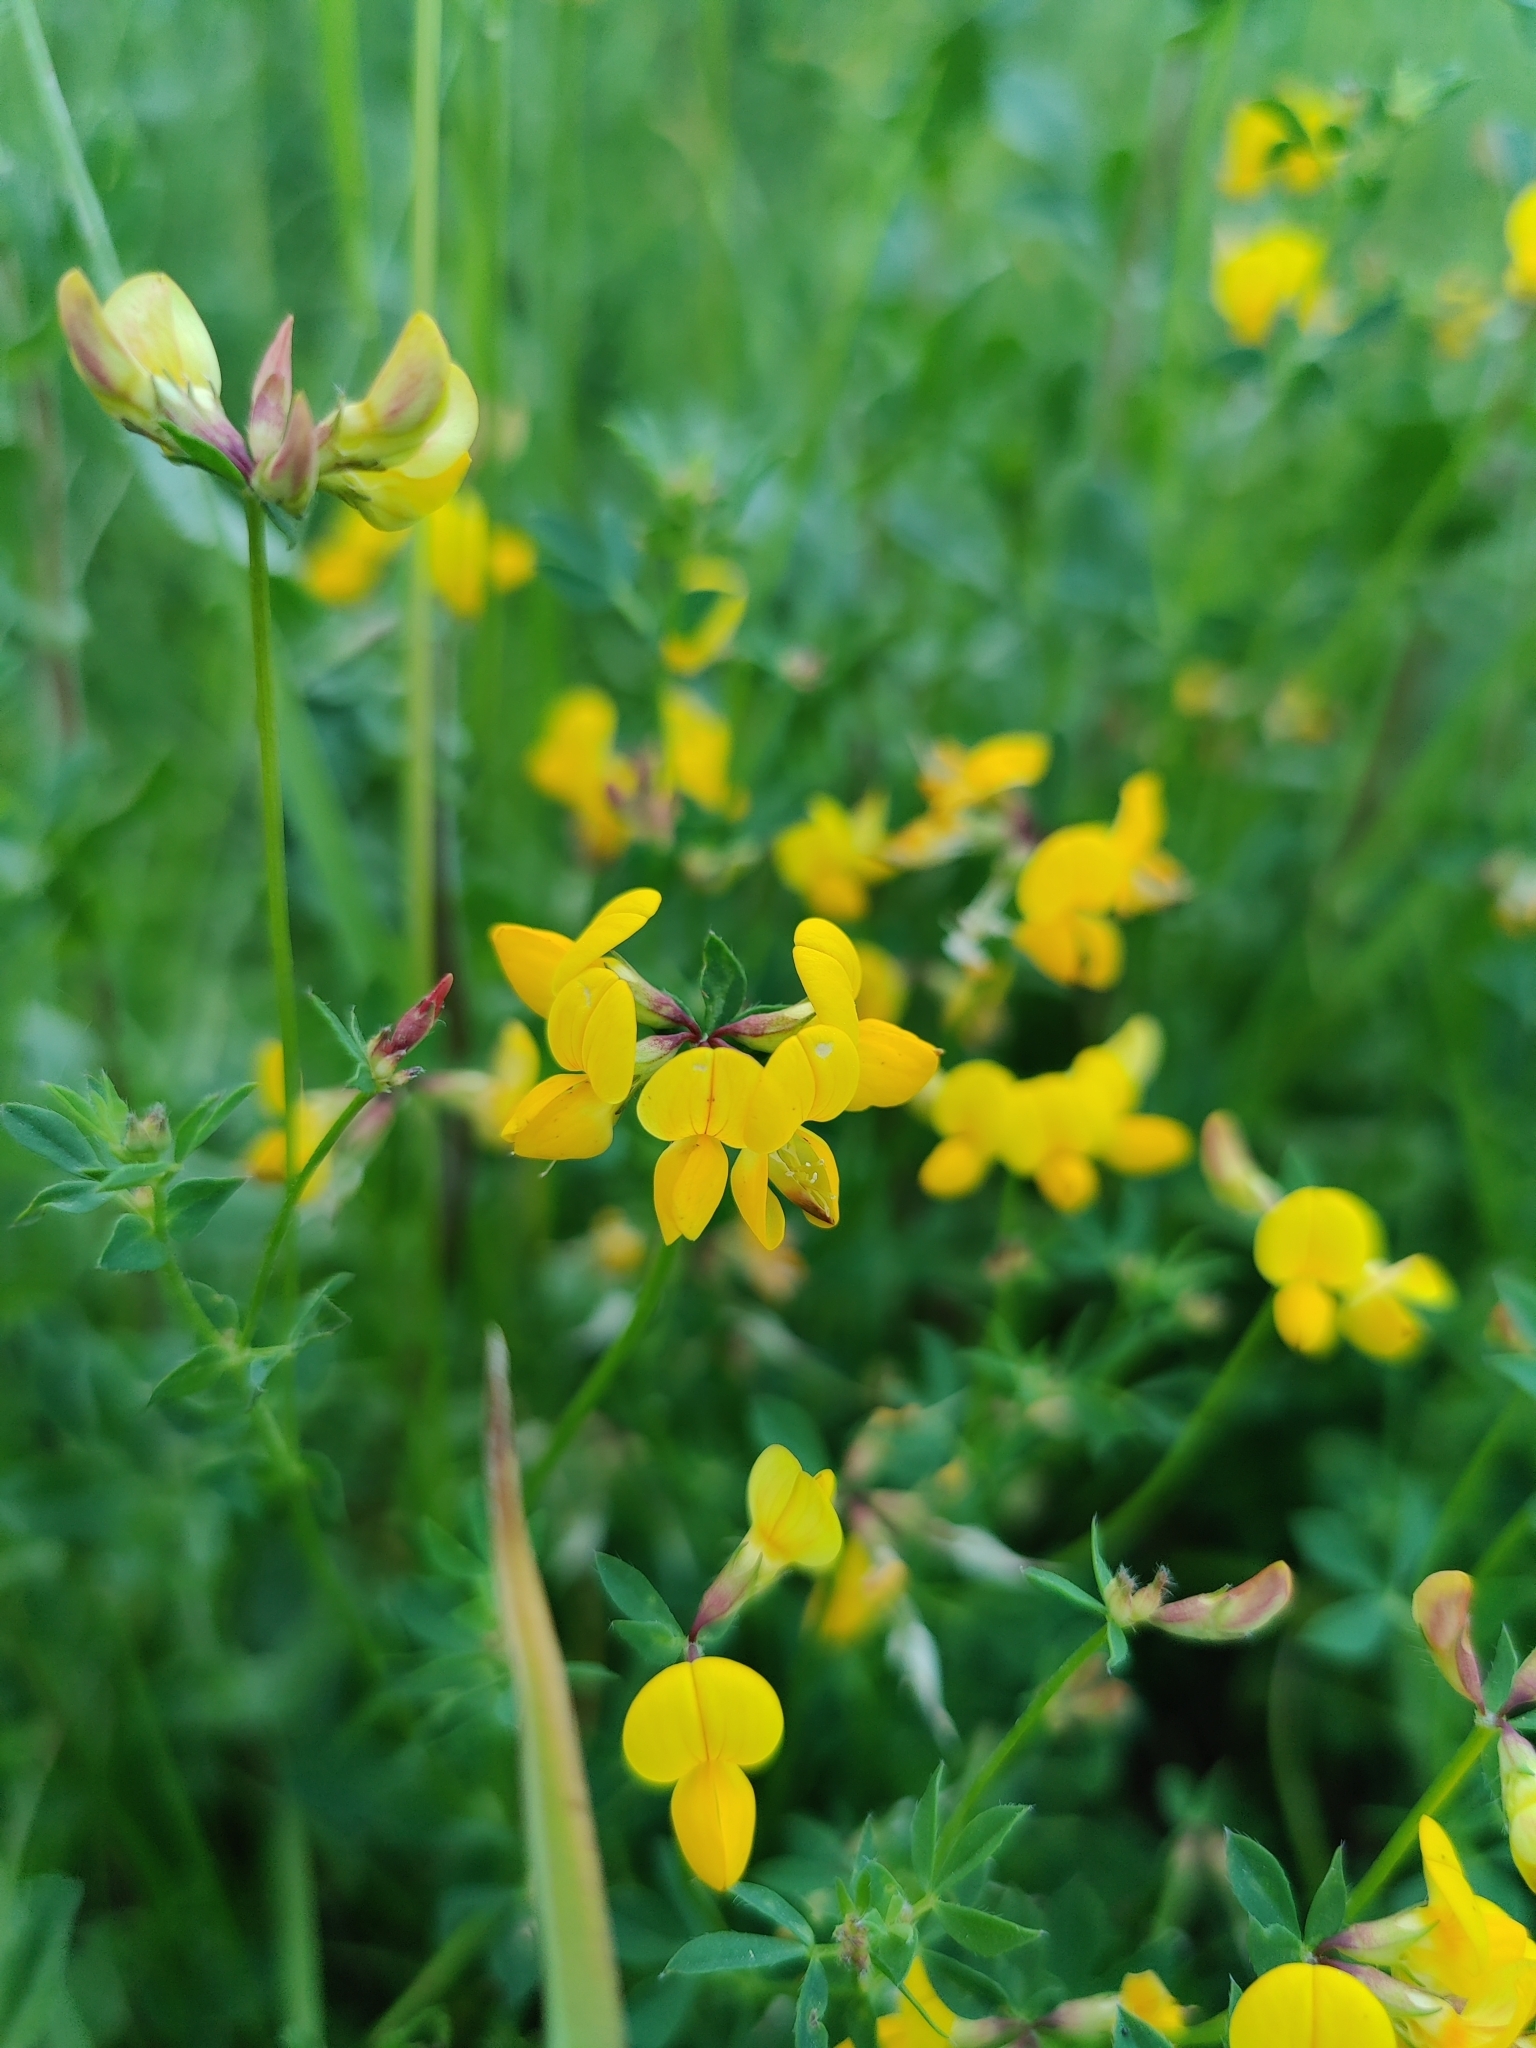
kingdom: Plantae
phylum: Tracheophyta
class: Magnoliopsida
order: Fabales
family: Fabaceae
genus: Lotus
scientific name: Lotus corniculatus
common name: Common bird's-foot-trefoil
